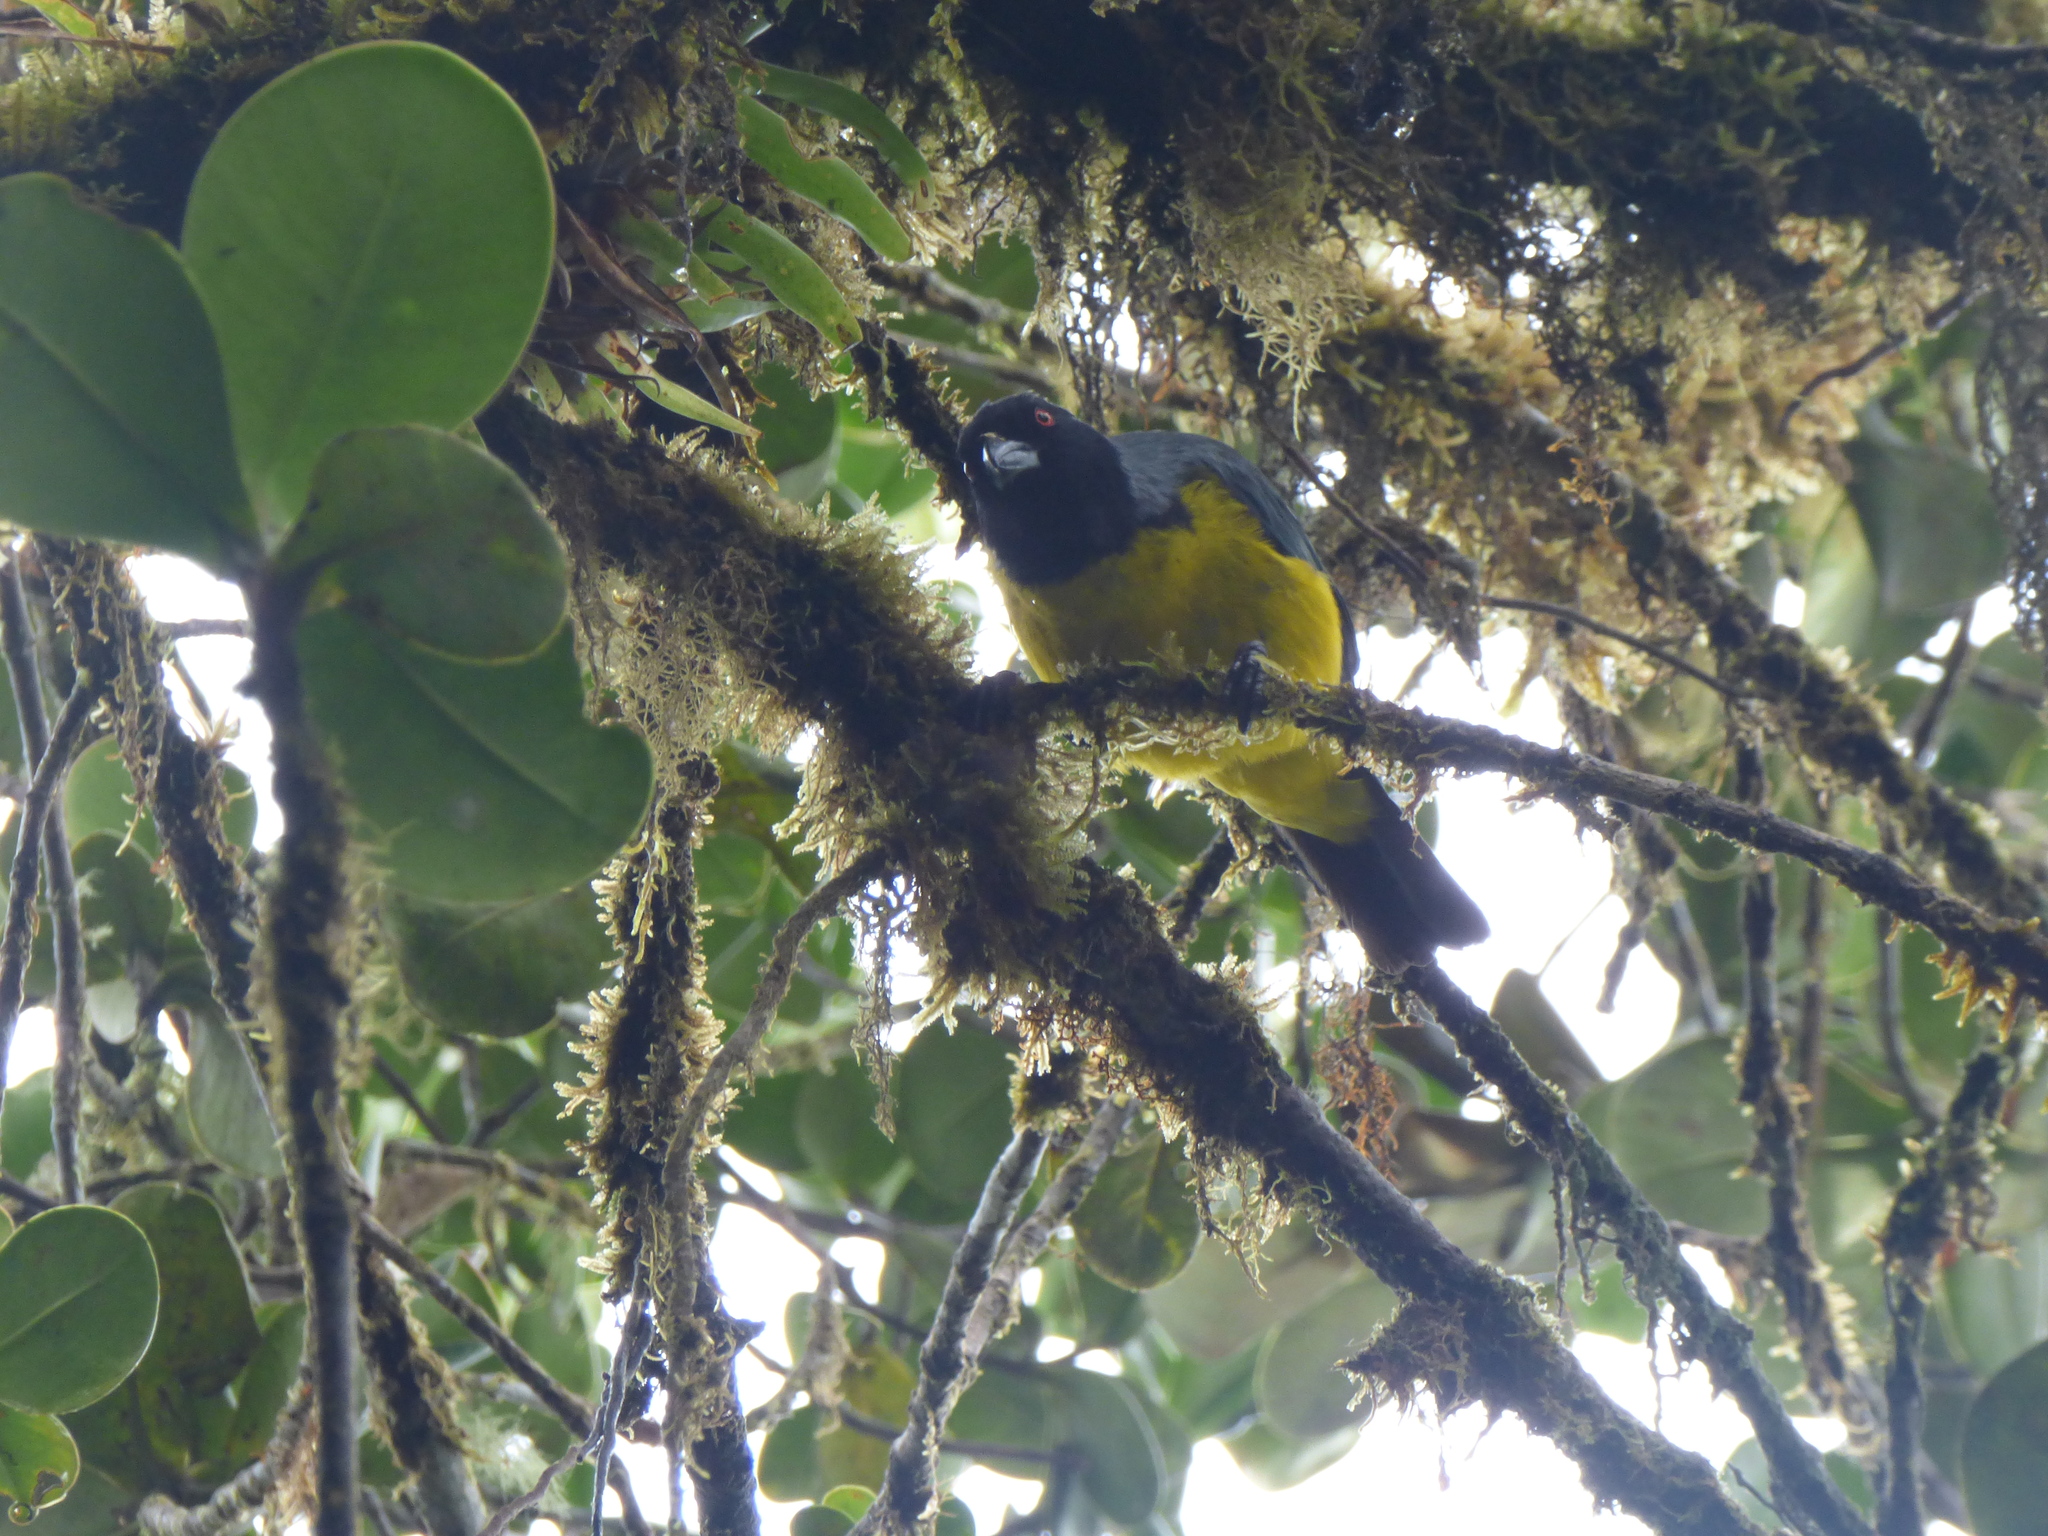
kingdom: Animalia
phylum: Chordata
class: Aves
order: Passeriformes
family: Thraupidae
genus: Buthraupis
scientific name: Buthraupis montana
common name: Hooded mountain tanager
